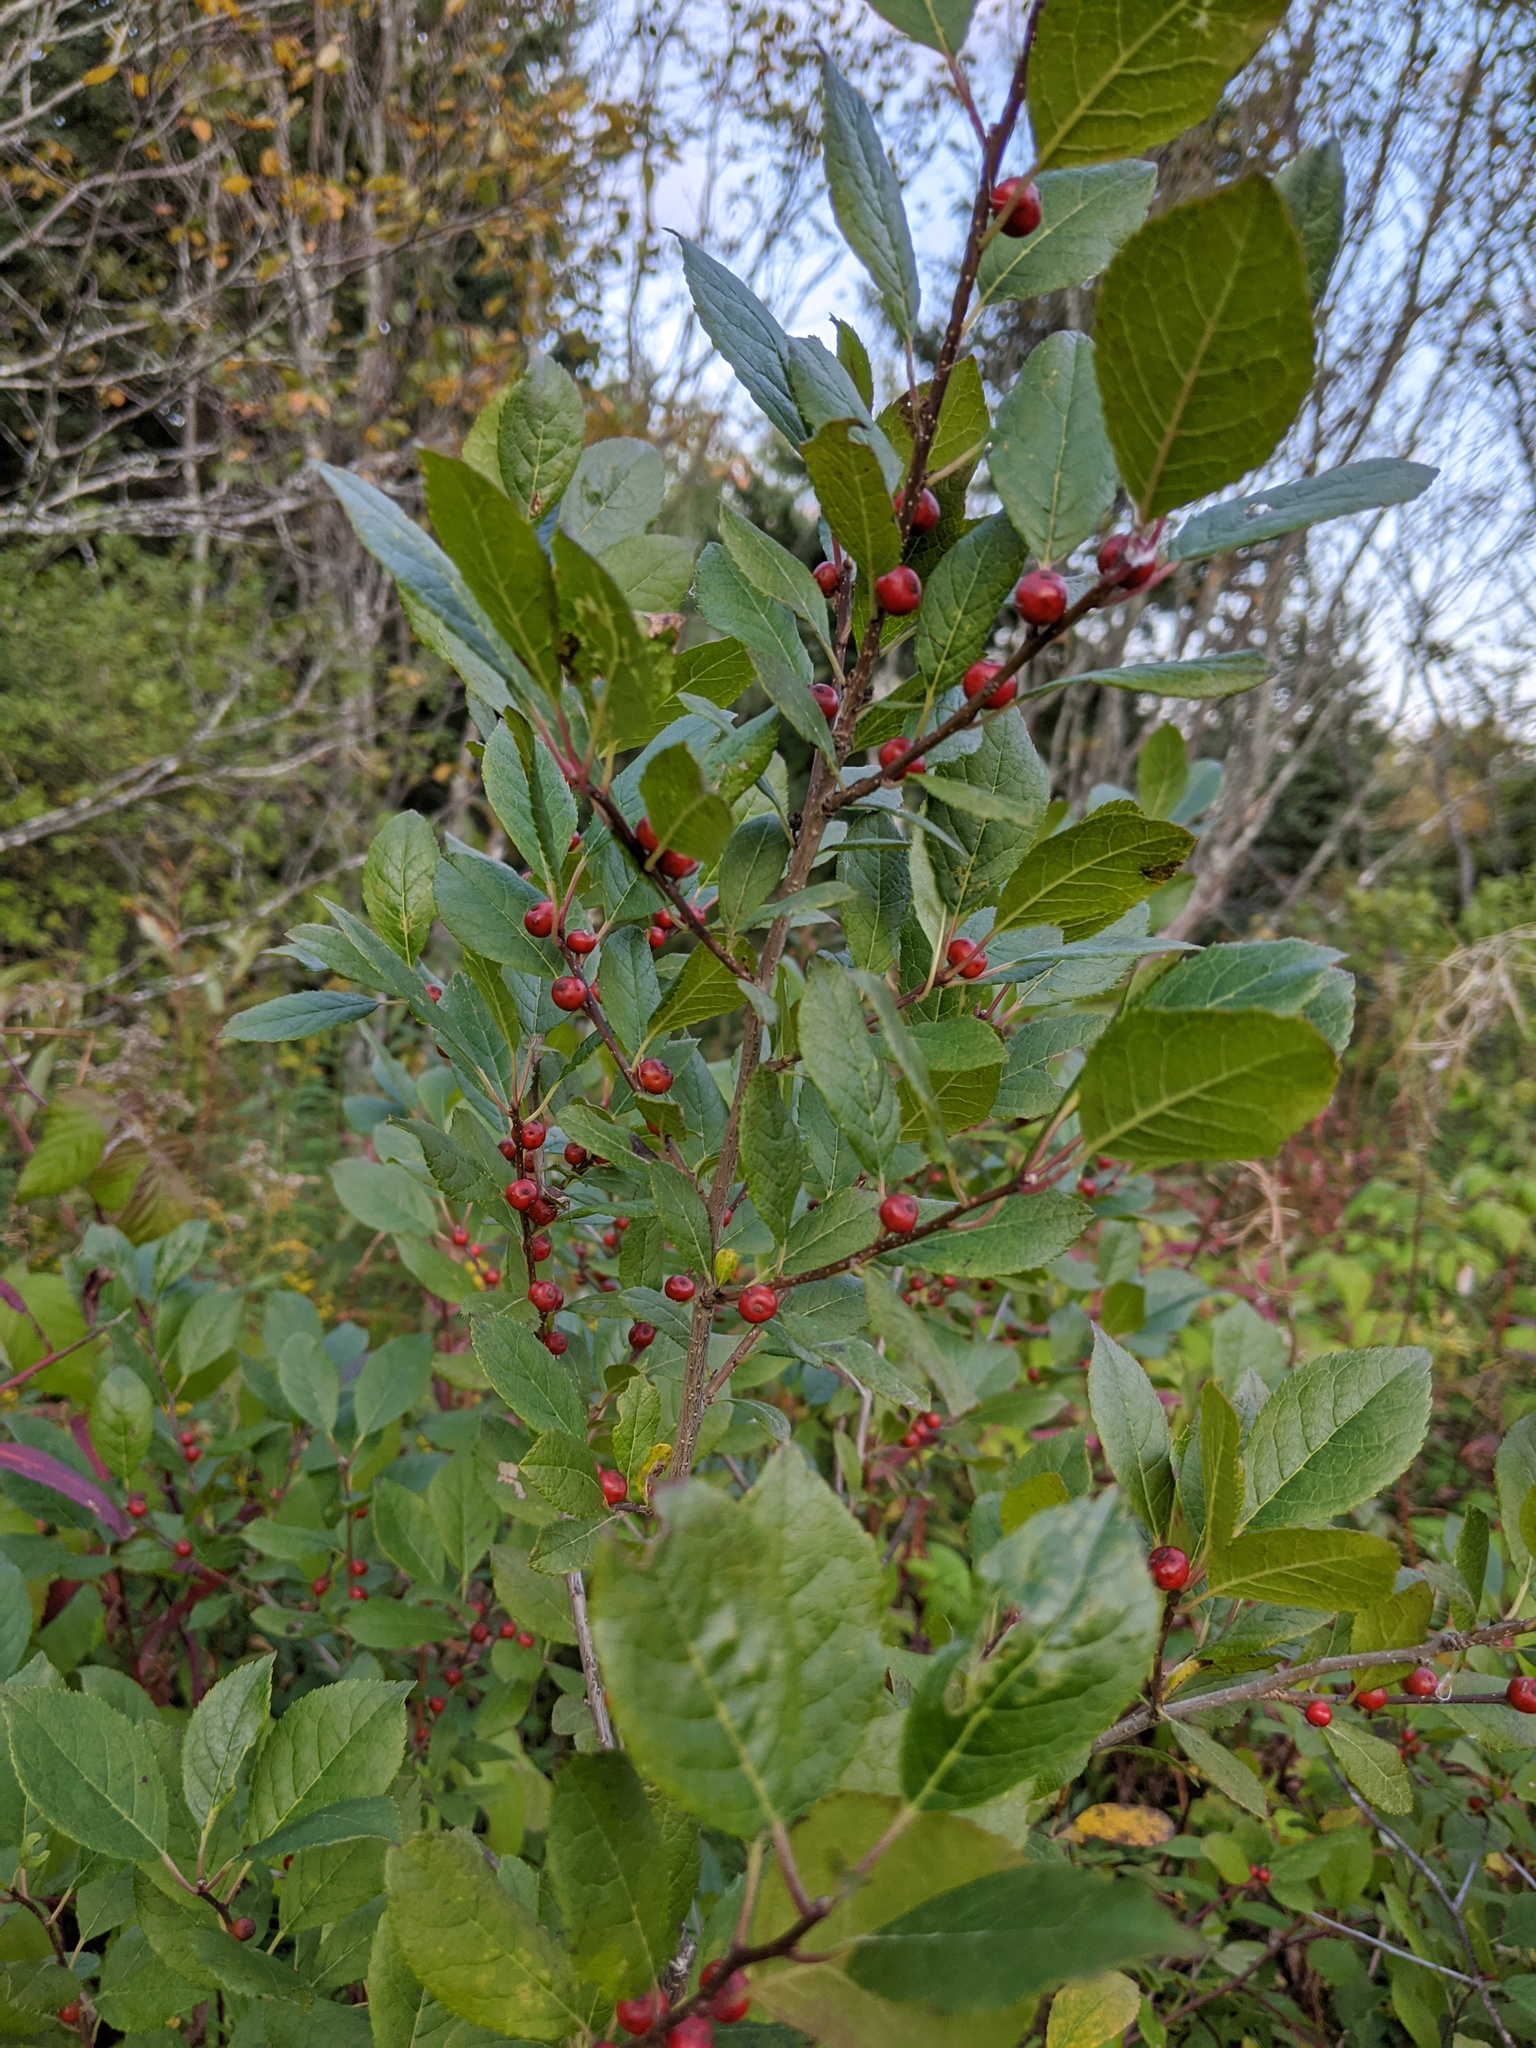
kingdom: Plantae
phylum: Tracheophyta
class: Magnoliopsida
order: Aquifoliales
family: Aquifoliaceae
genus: Ilex
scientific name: Ilex verticillata
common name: Virginia winterberry
